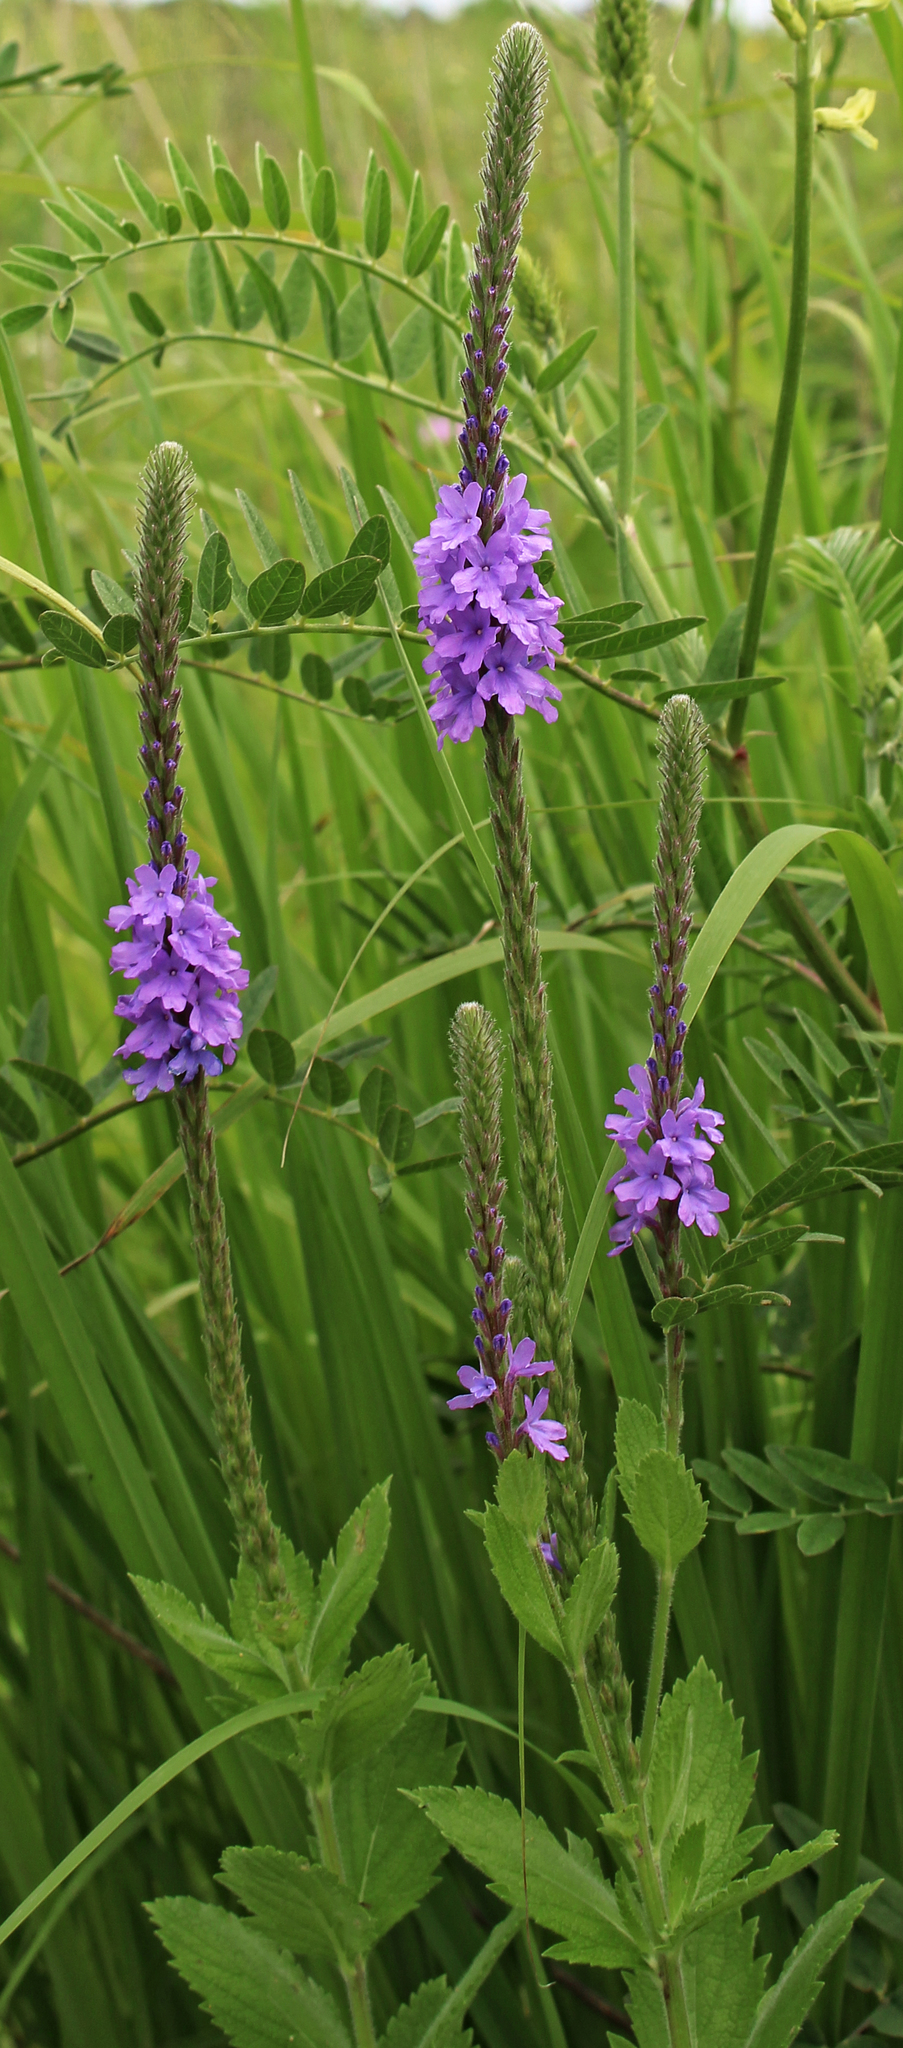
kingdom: Plantae
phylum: Tracheophyta
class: Magnoliopsida
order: Lamiales
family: Verbenaceae
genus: Verbena
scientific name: Verbena stricta
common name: Hoary vervain
